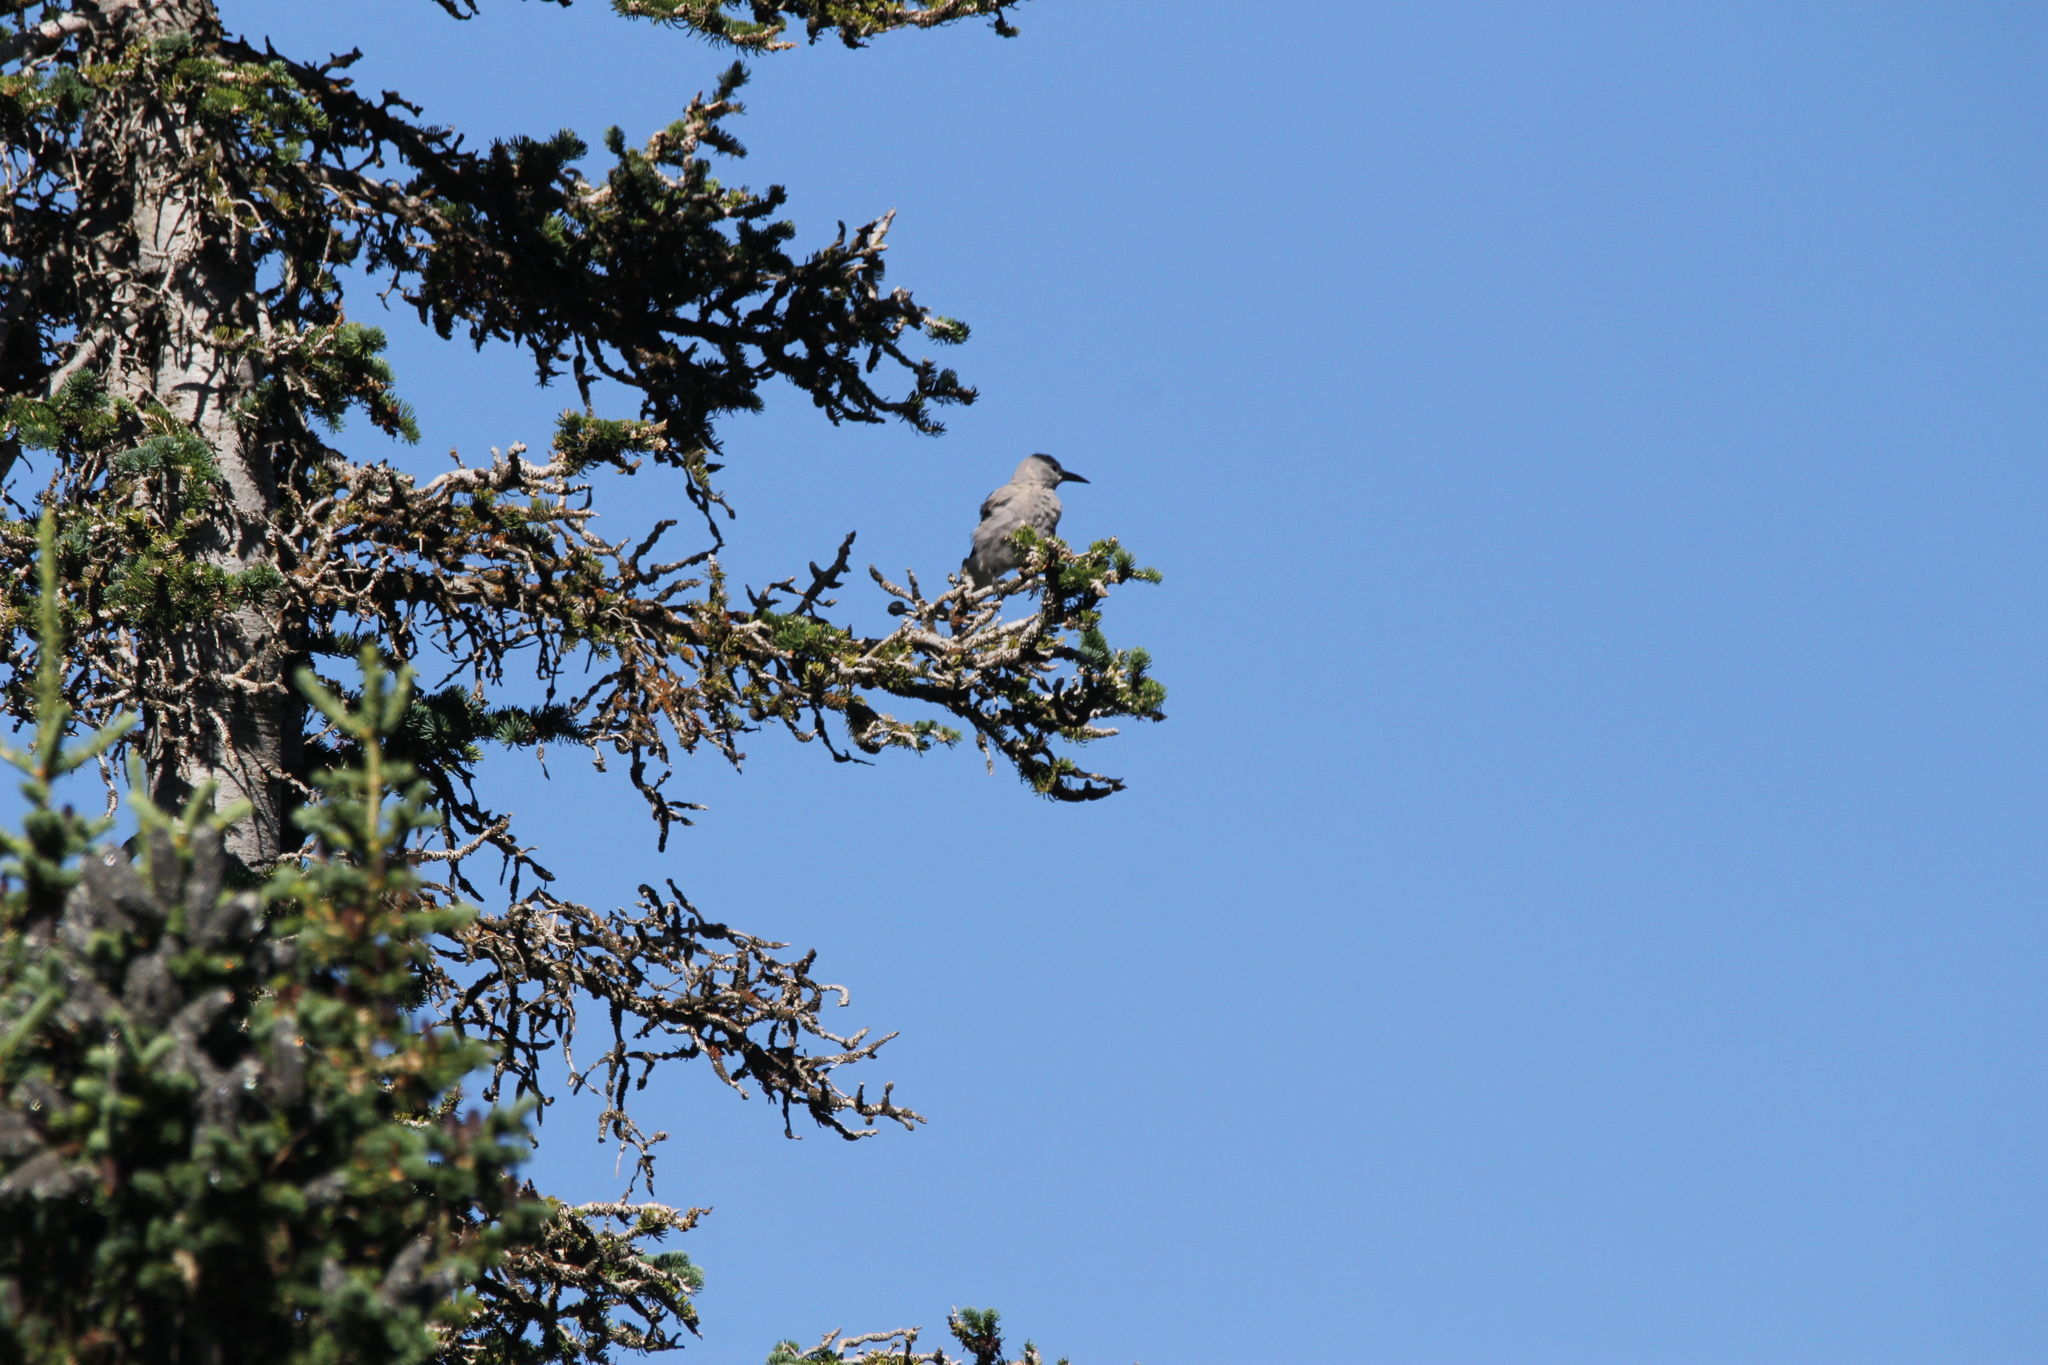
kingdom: Animalia
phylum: Chordata
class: Aves
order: Passeriformes
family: Corvidae
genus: Nucifraga
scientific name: Nucifraga columbiana
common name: Clark's nutcracker
